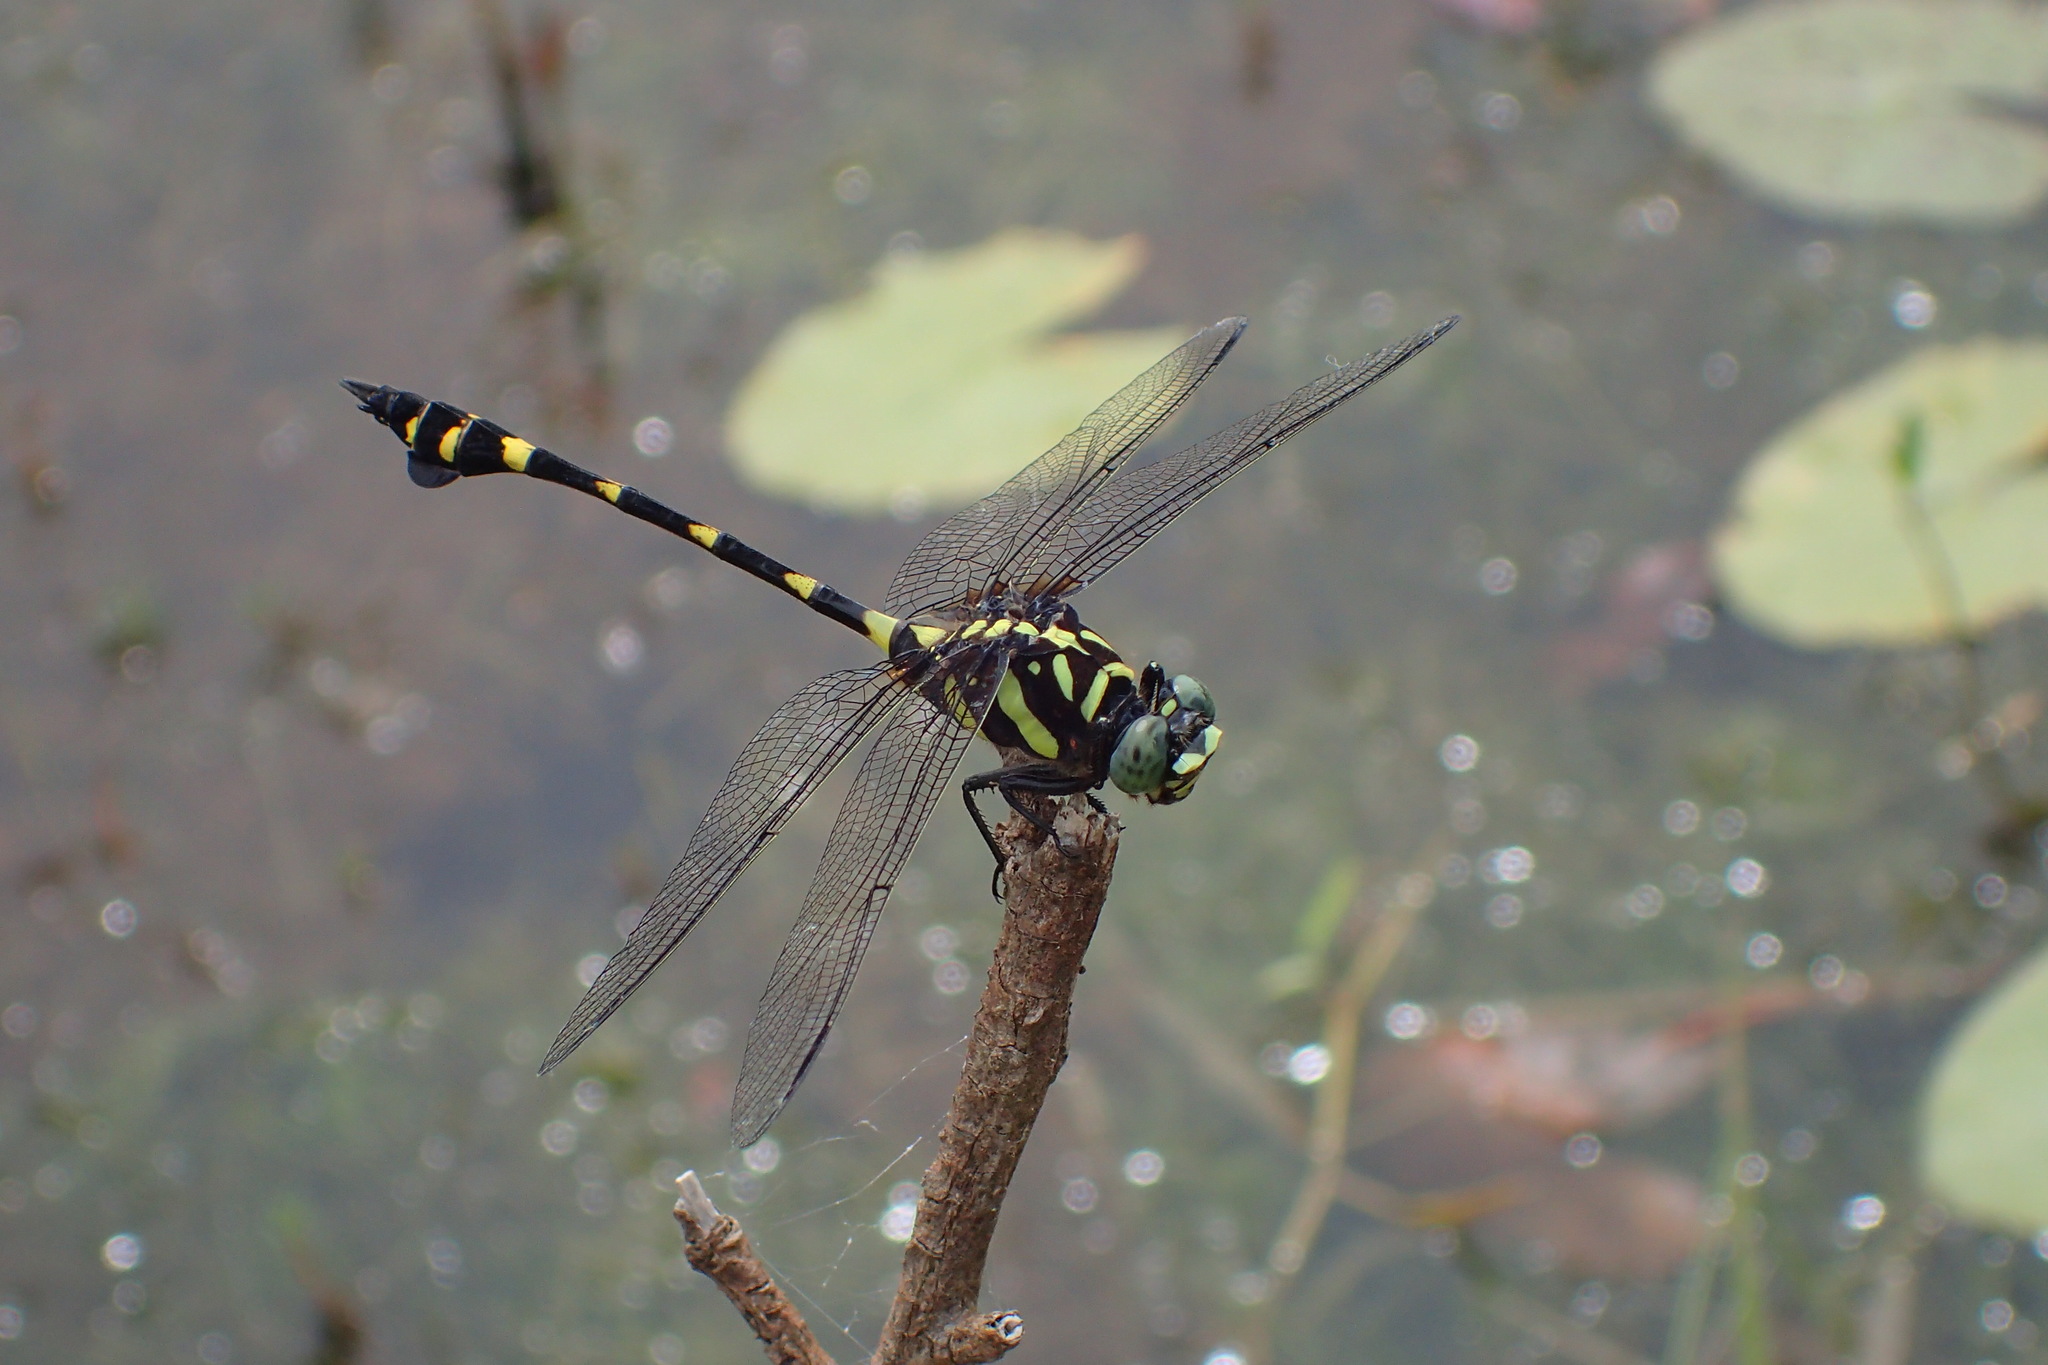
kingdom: Animalia
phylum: Arthropoda
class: Insecta
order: Odonata
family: Gomphidae
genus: Ictinogomphus
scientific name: Ictinogomphus decoratus
